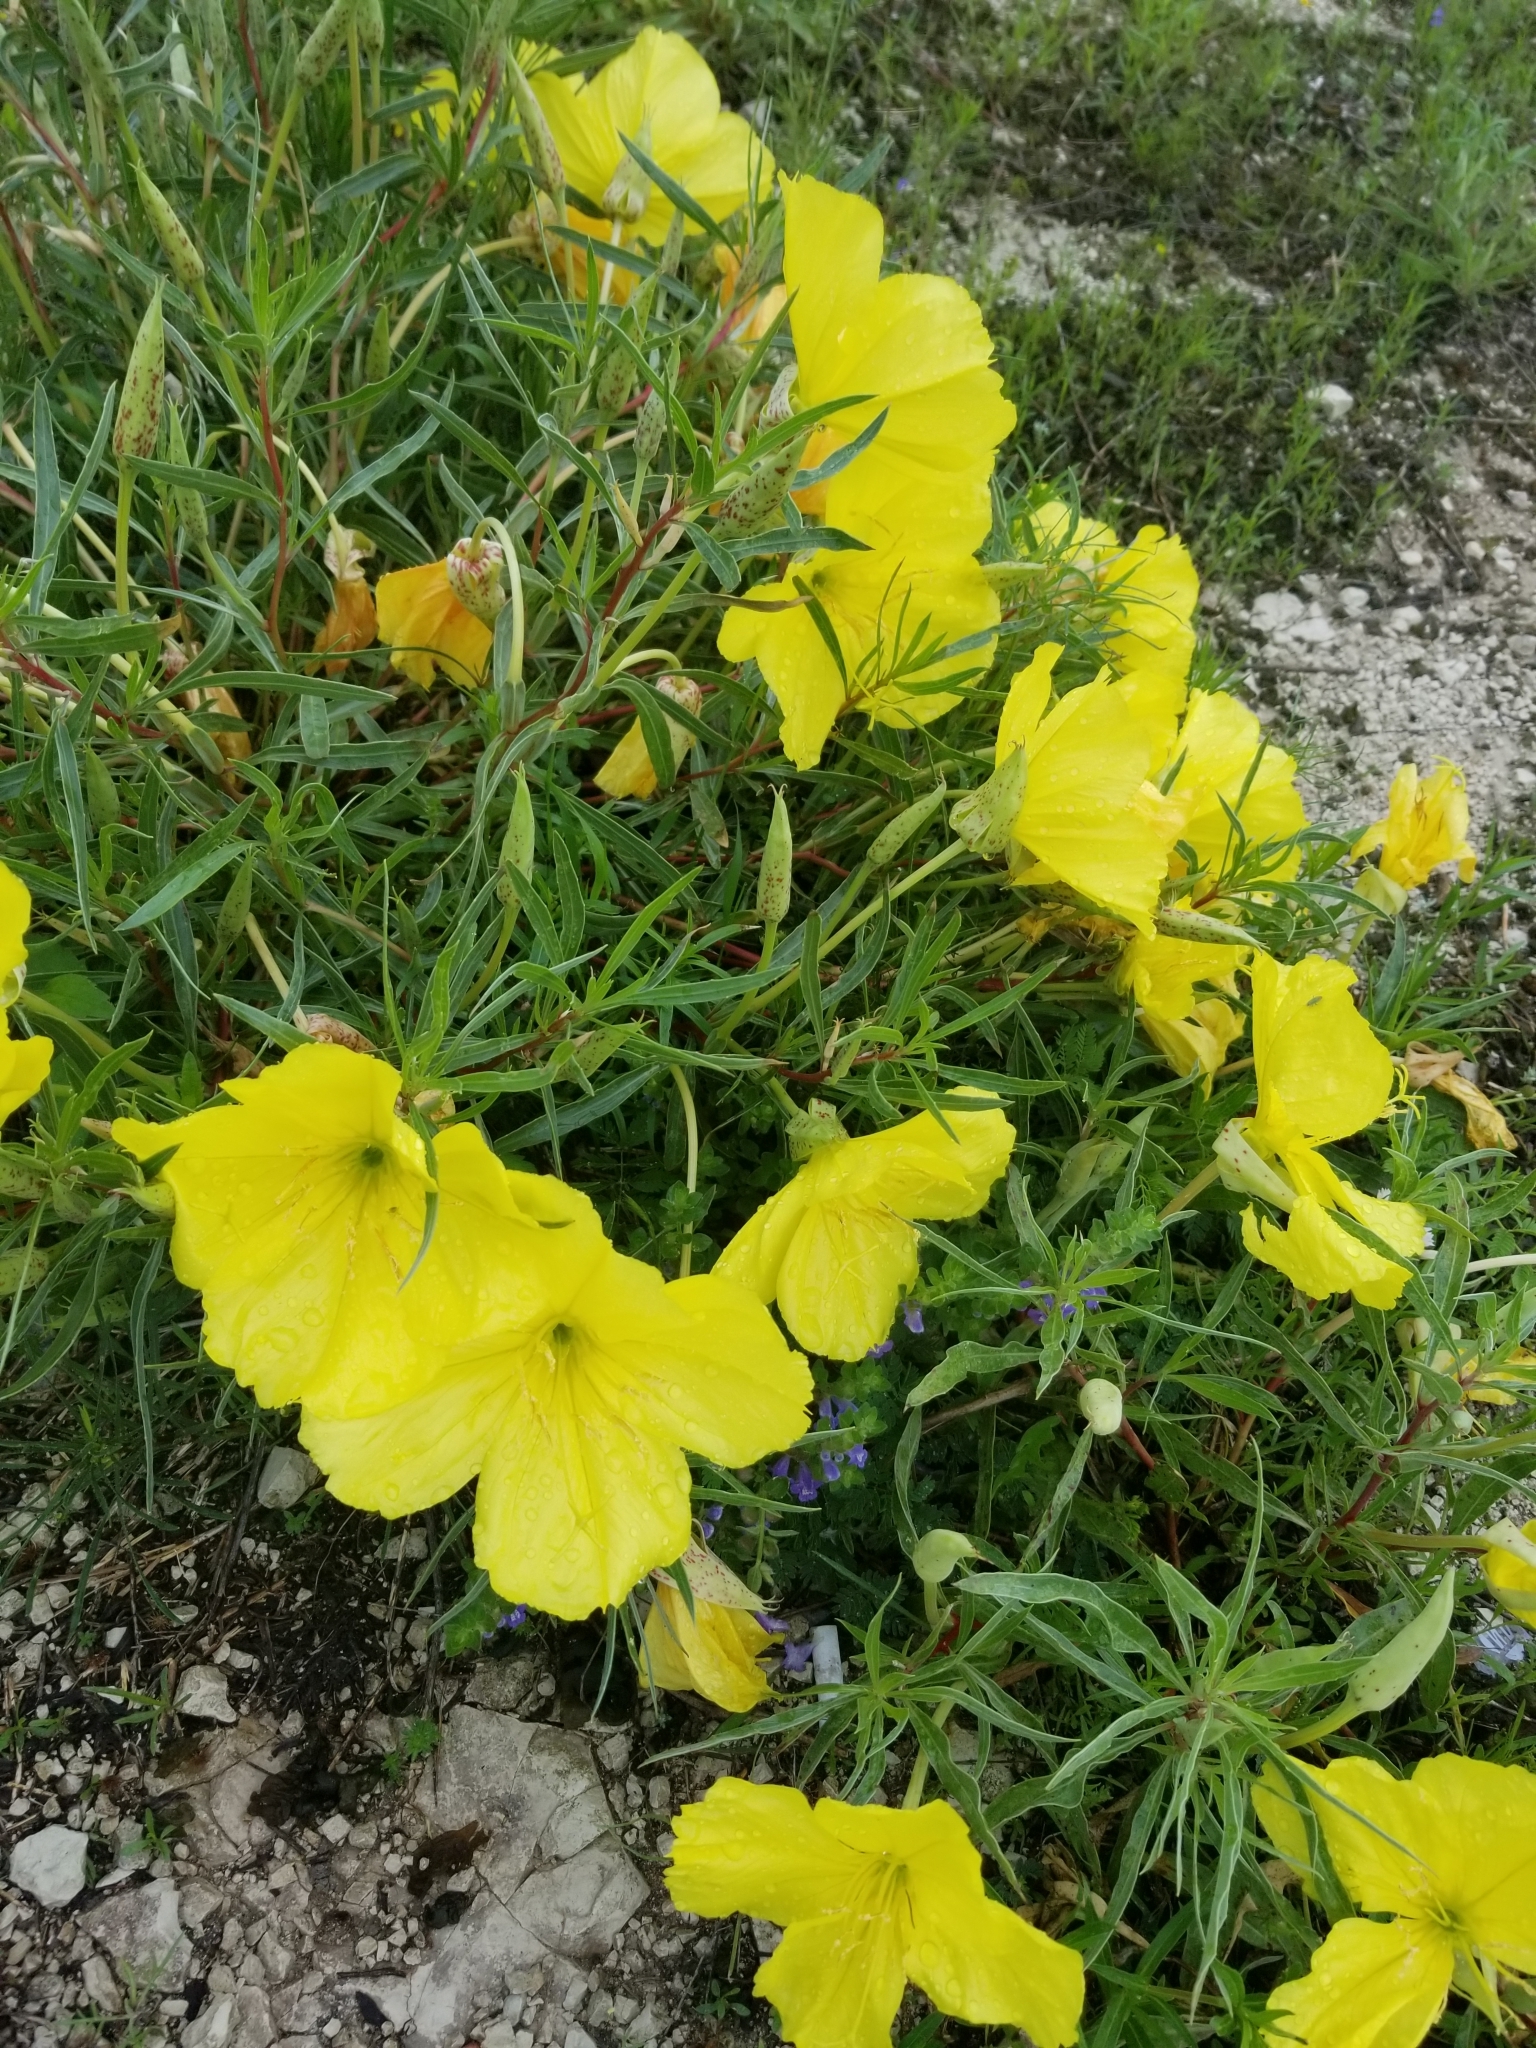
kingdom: Plantae
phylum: Tracheophyta
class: Magnoliopsida
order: Myrtales
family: Onagraceae
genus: Oenothera
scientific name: Oenothera macrocarpa
